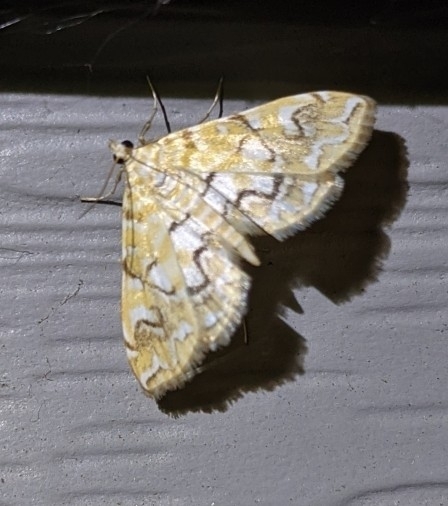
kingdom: Animalia
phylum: Arthropoda
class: Insecta
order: Lepidoptera
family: Crambidae
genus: Elophila
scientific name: Elophila icciusalis
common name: Pondside pyralid moth
